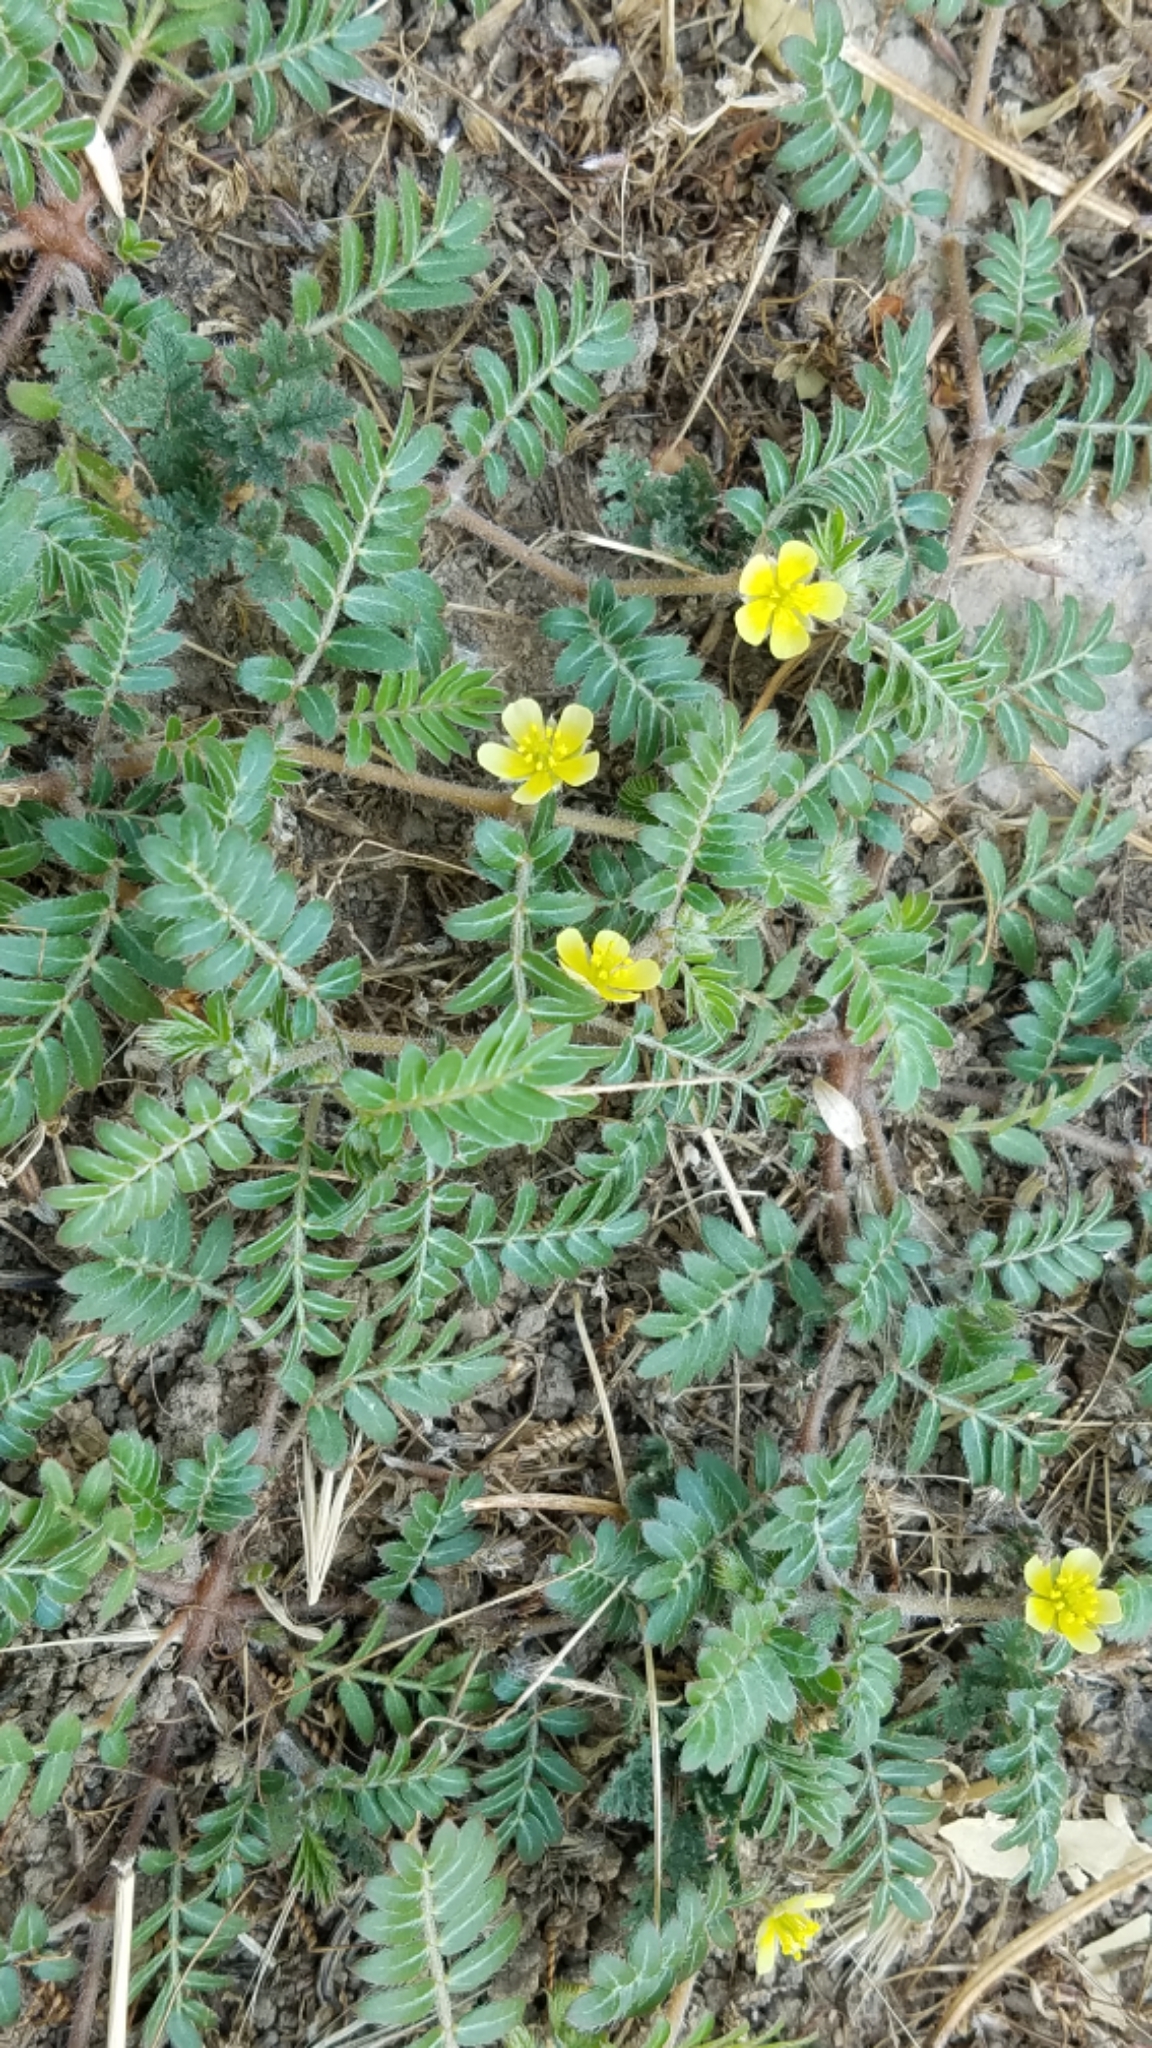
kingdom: Plantae
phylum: Tracheophyta
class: Magnoliopsida
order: Zygophyllales
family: Zygophyllaceae
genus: Tribulus
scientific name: Tribulus terrestris
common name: Puncturevine
